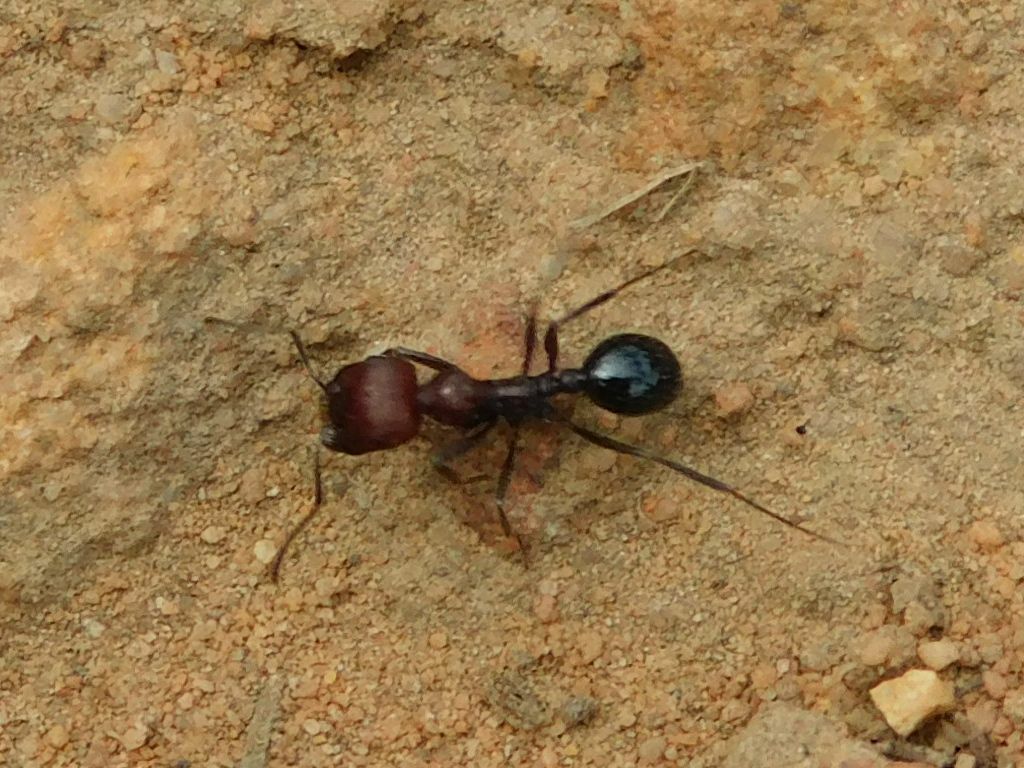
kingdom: Animalia
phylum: Arthropoda
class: Insecta
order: Hymenoptera
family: Formicidae
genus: Messor
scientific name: Messor capensis
